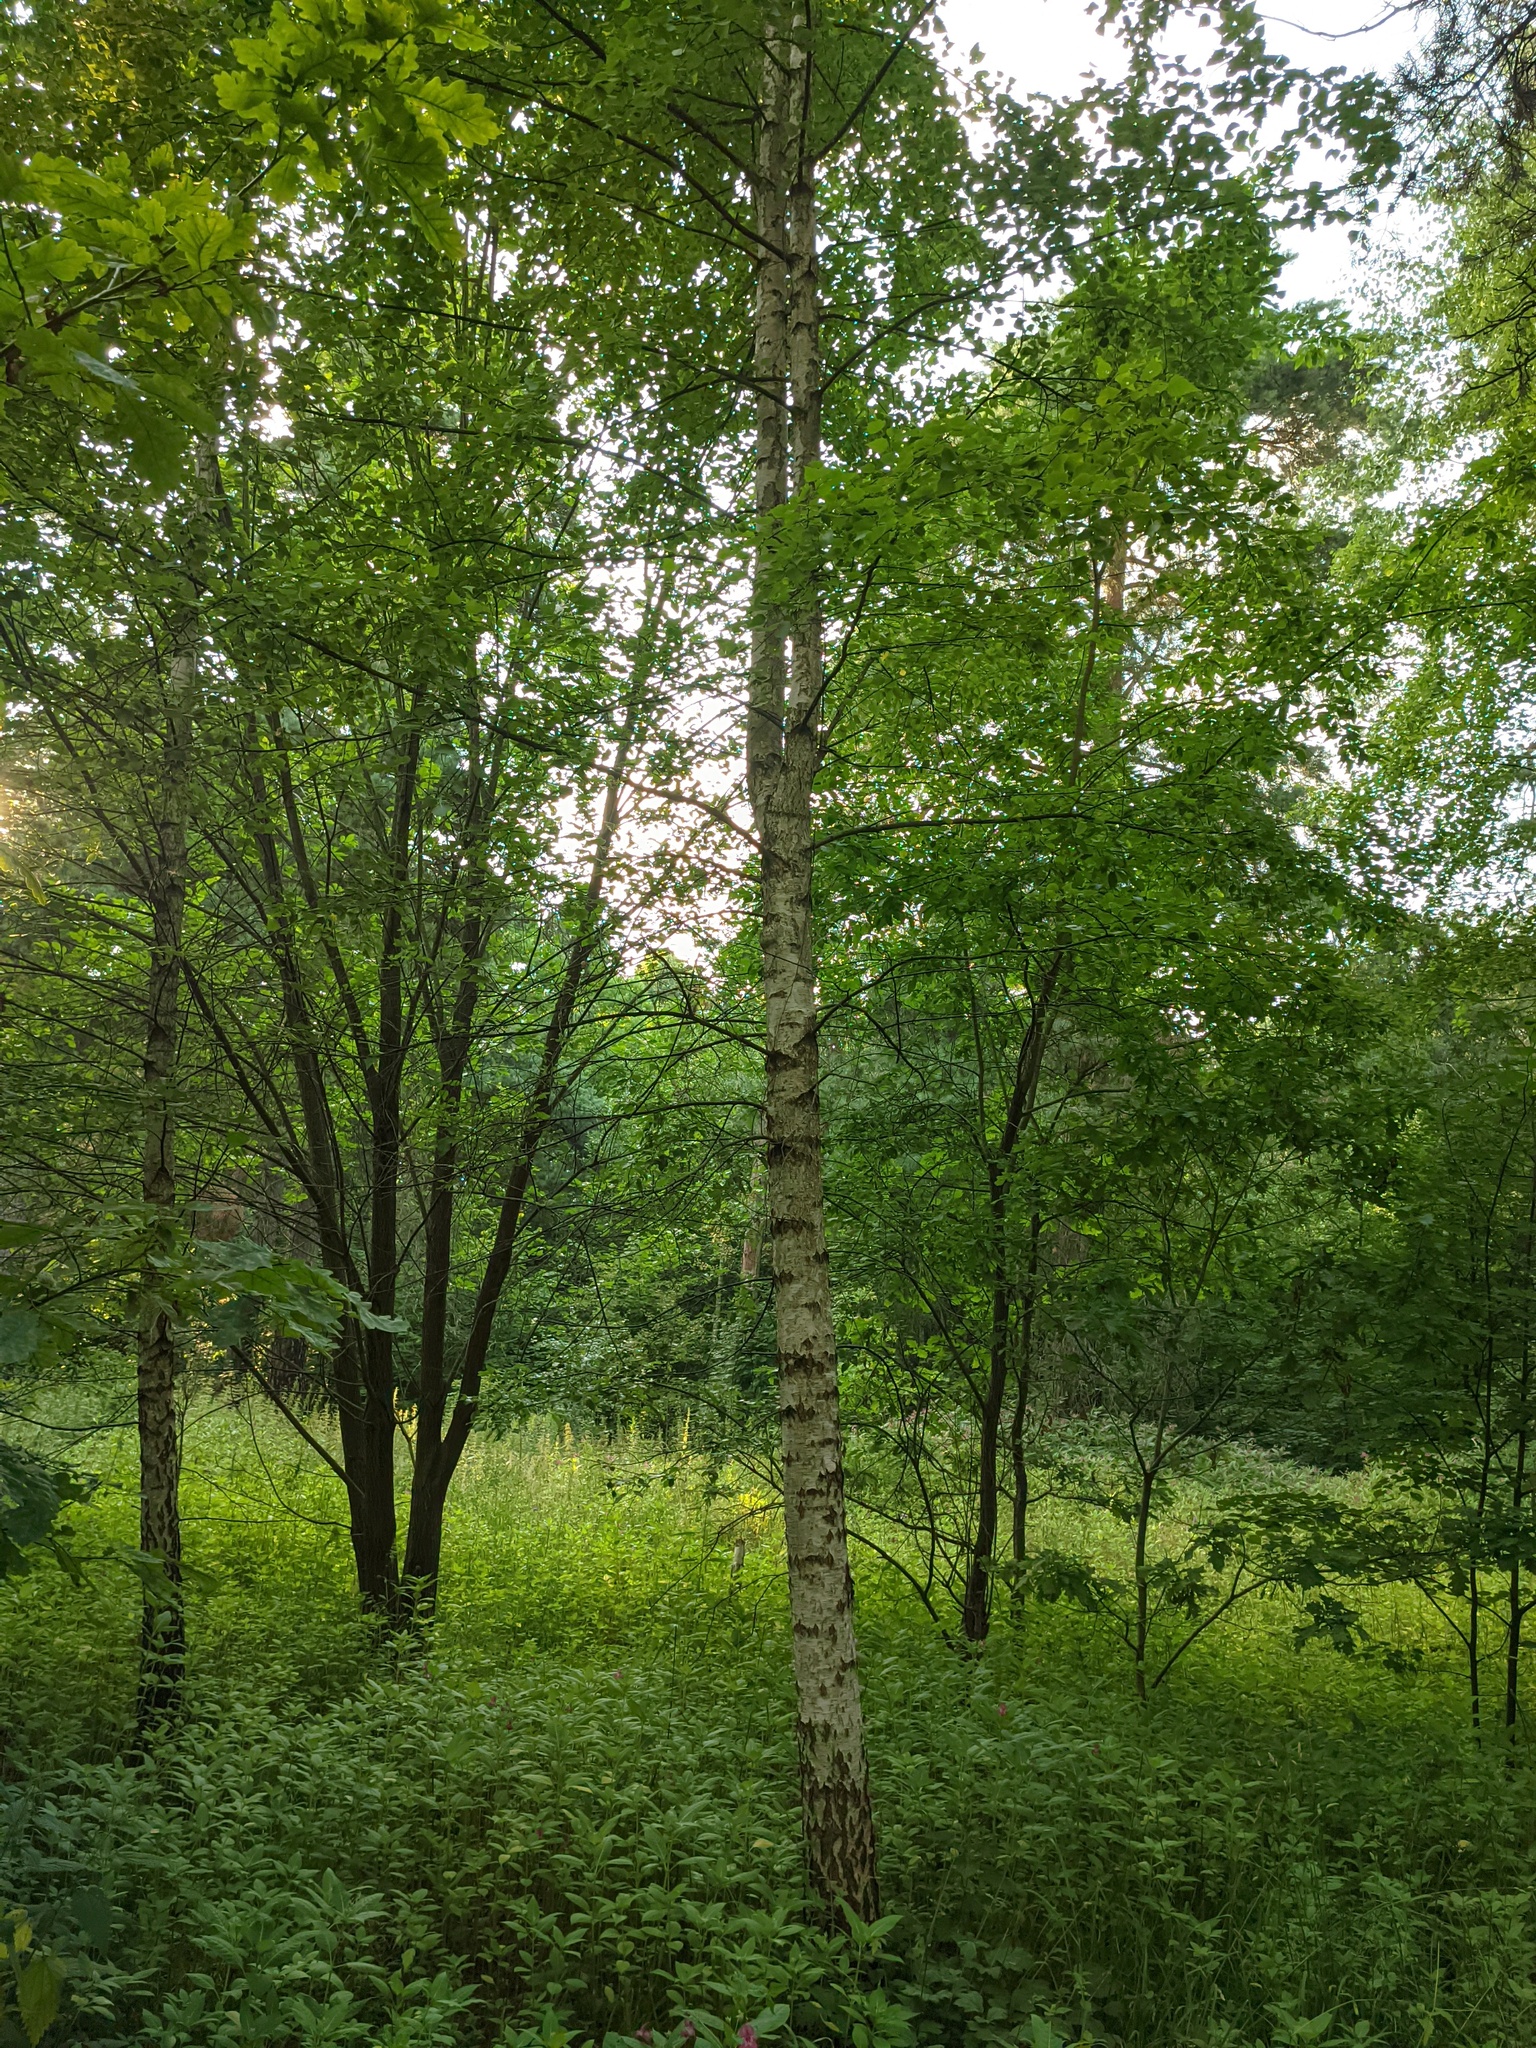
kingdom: Plantae
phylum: Tracheophyta
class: Magnoliopsida
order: Fagales
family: Betulaceae
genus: Betula
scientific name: Betula pendula
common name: Silver birch
